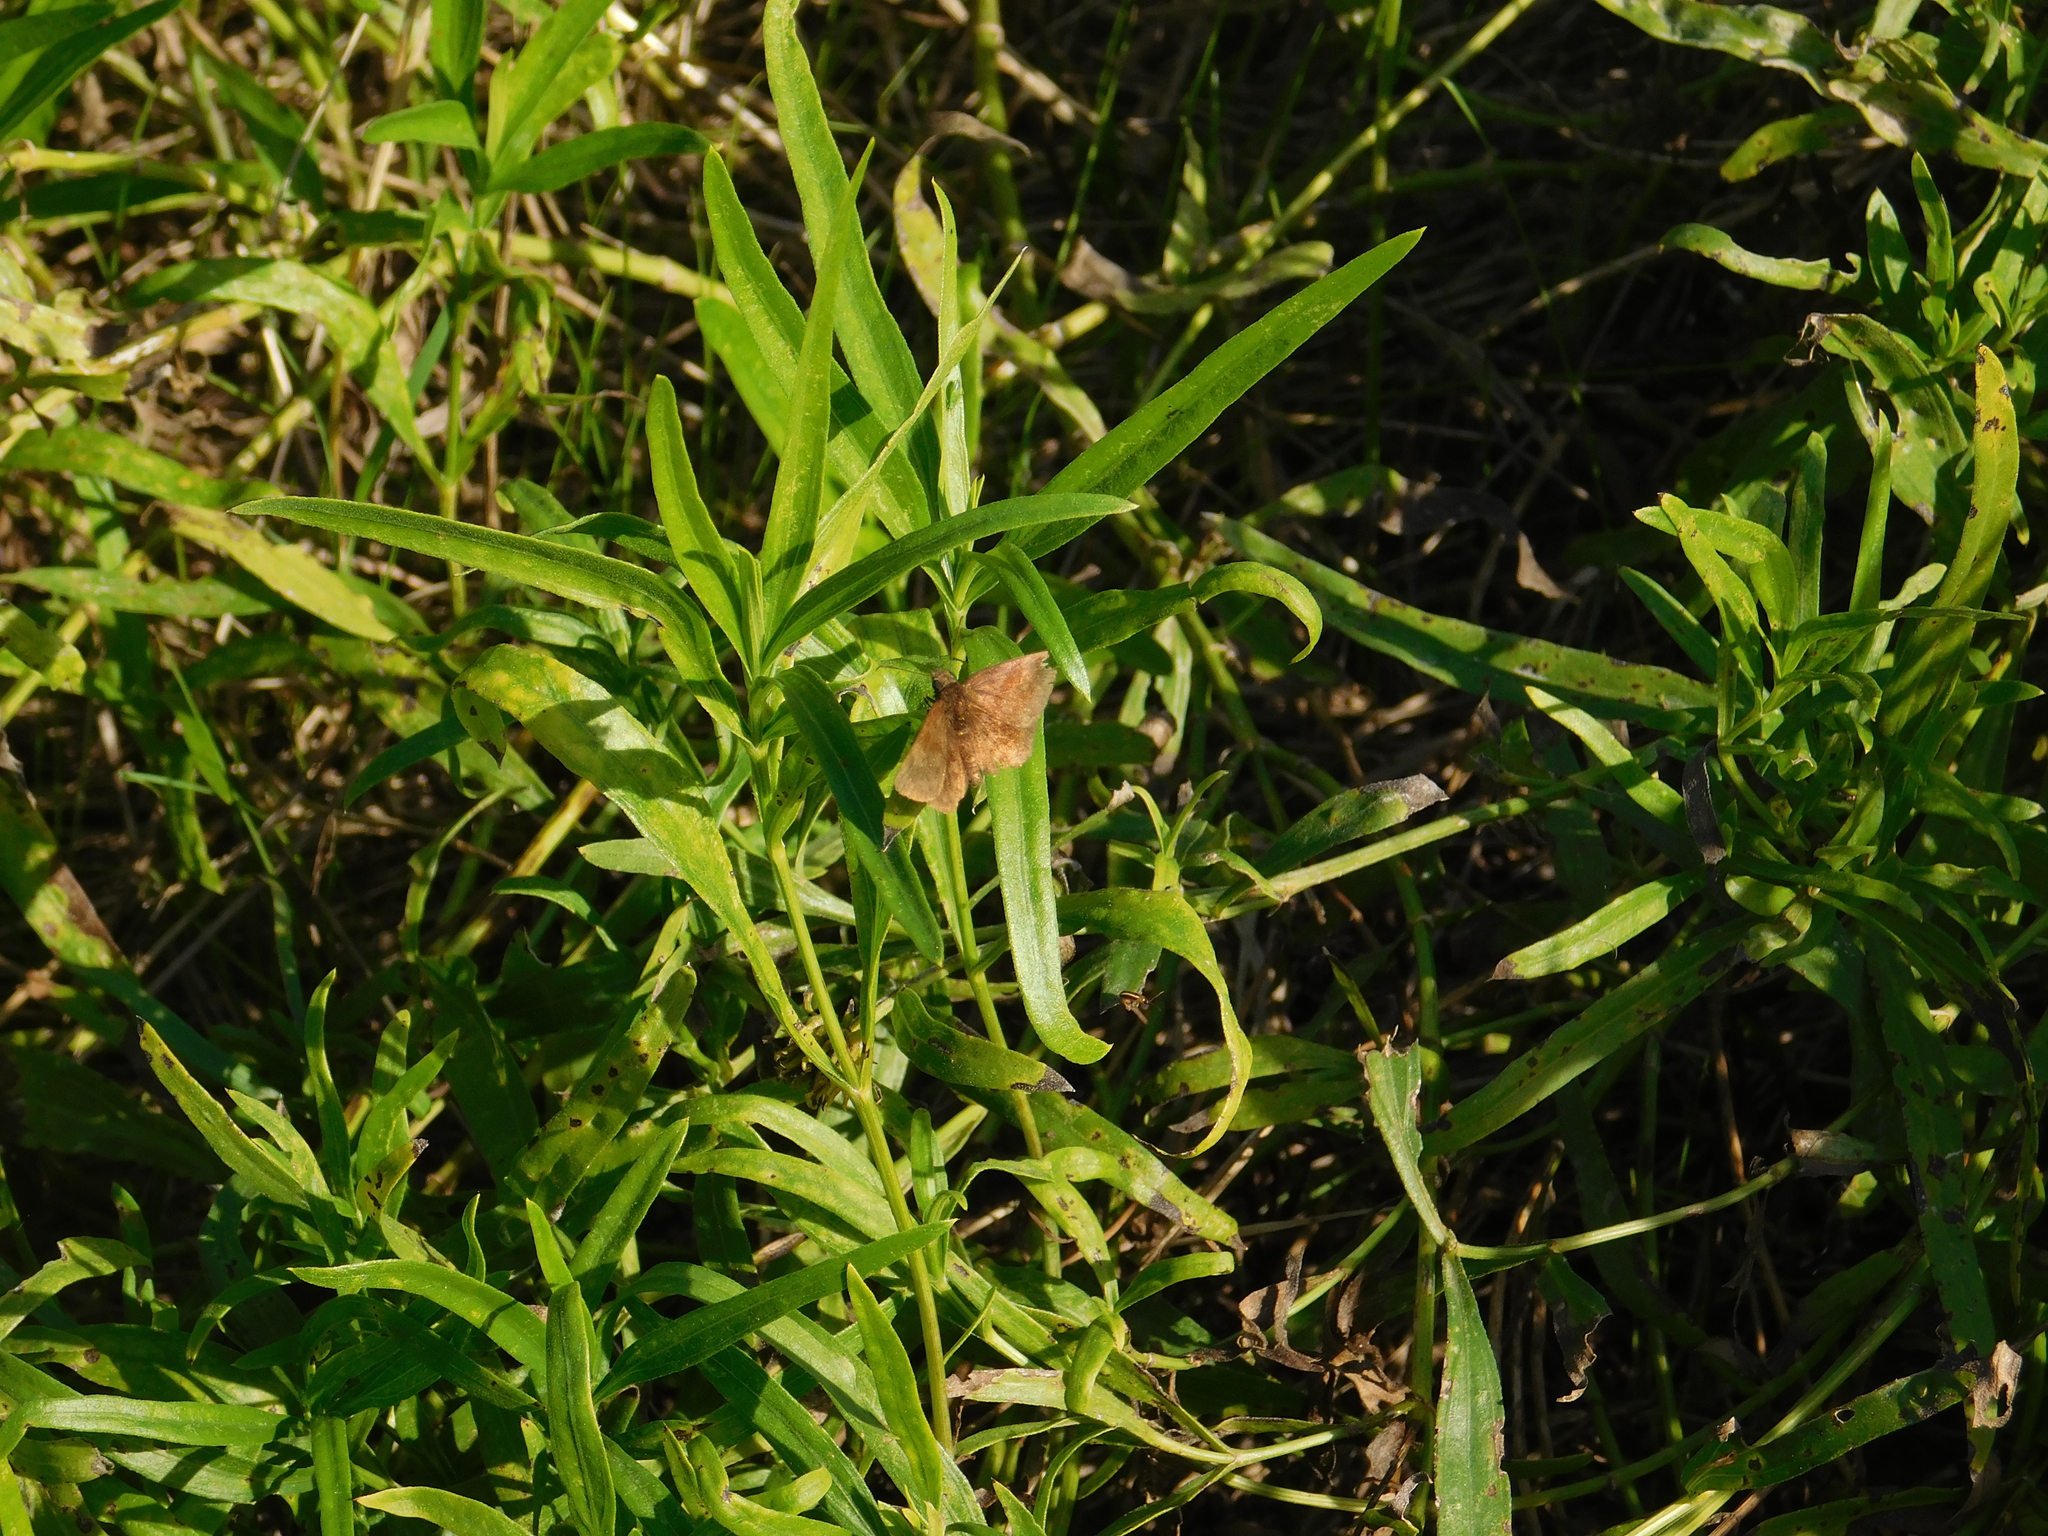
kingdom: Animalia
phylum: Arthropoda
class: Insecta
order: Lepidoptera
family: Hesperiidae
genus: Viola
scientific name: Viola minor
